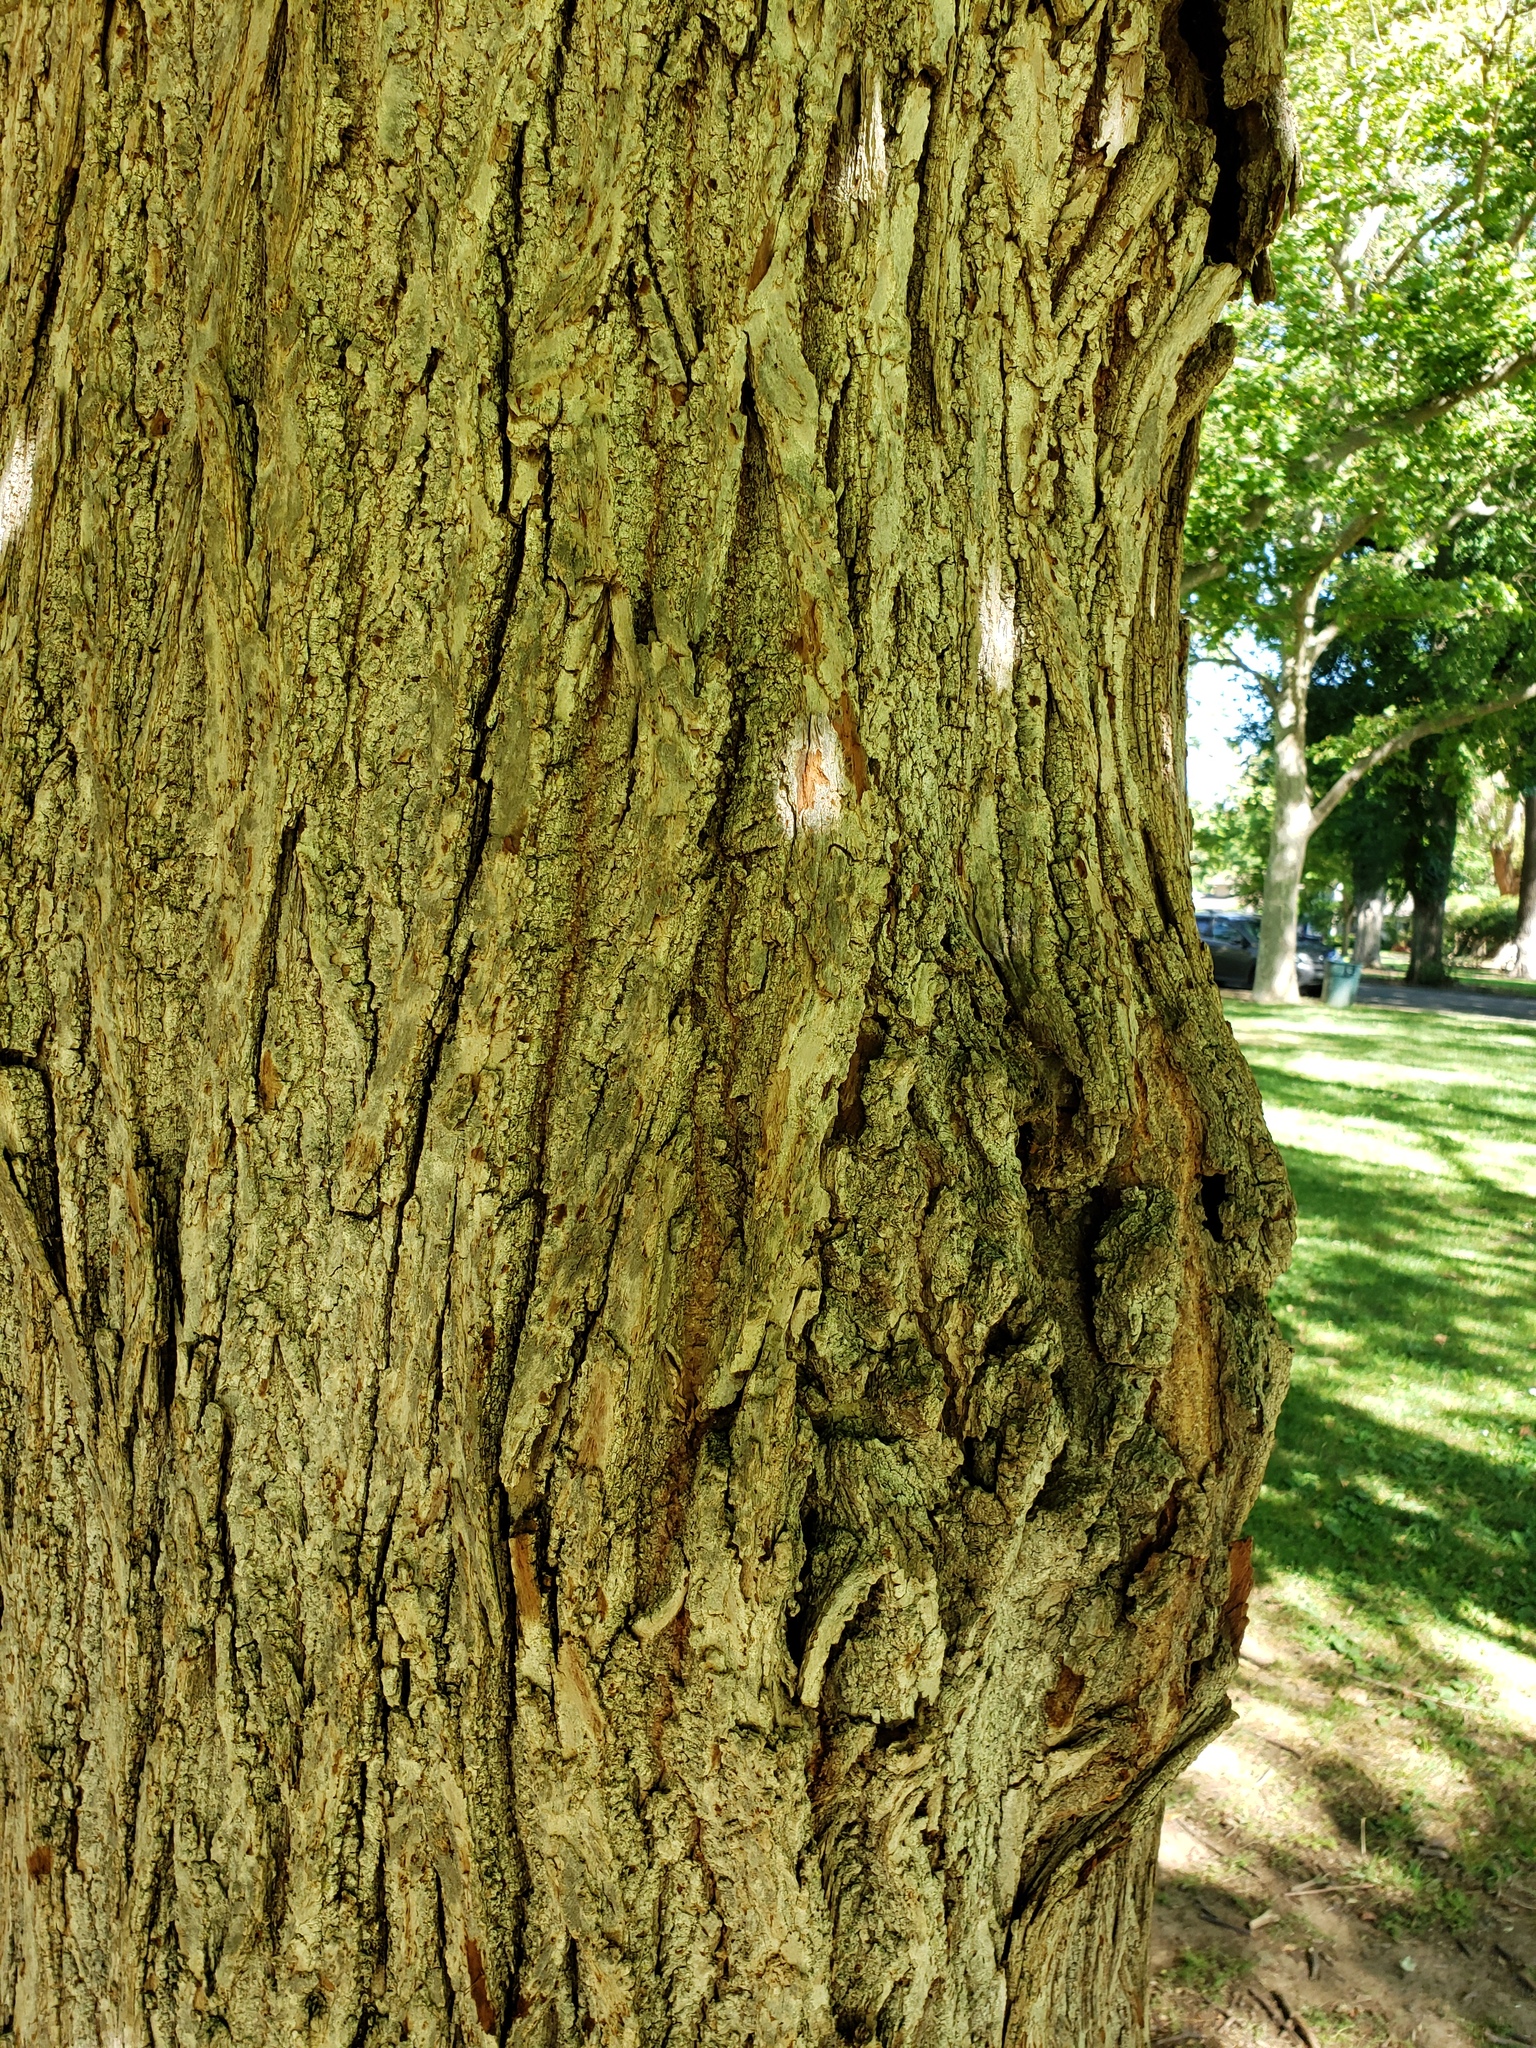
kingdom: Plantae
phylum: Tracheophyta
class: Magnoliopsida
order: Malvales
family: Malvaceae
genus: Tilia
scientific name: Tilia americana
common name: Basswood
